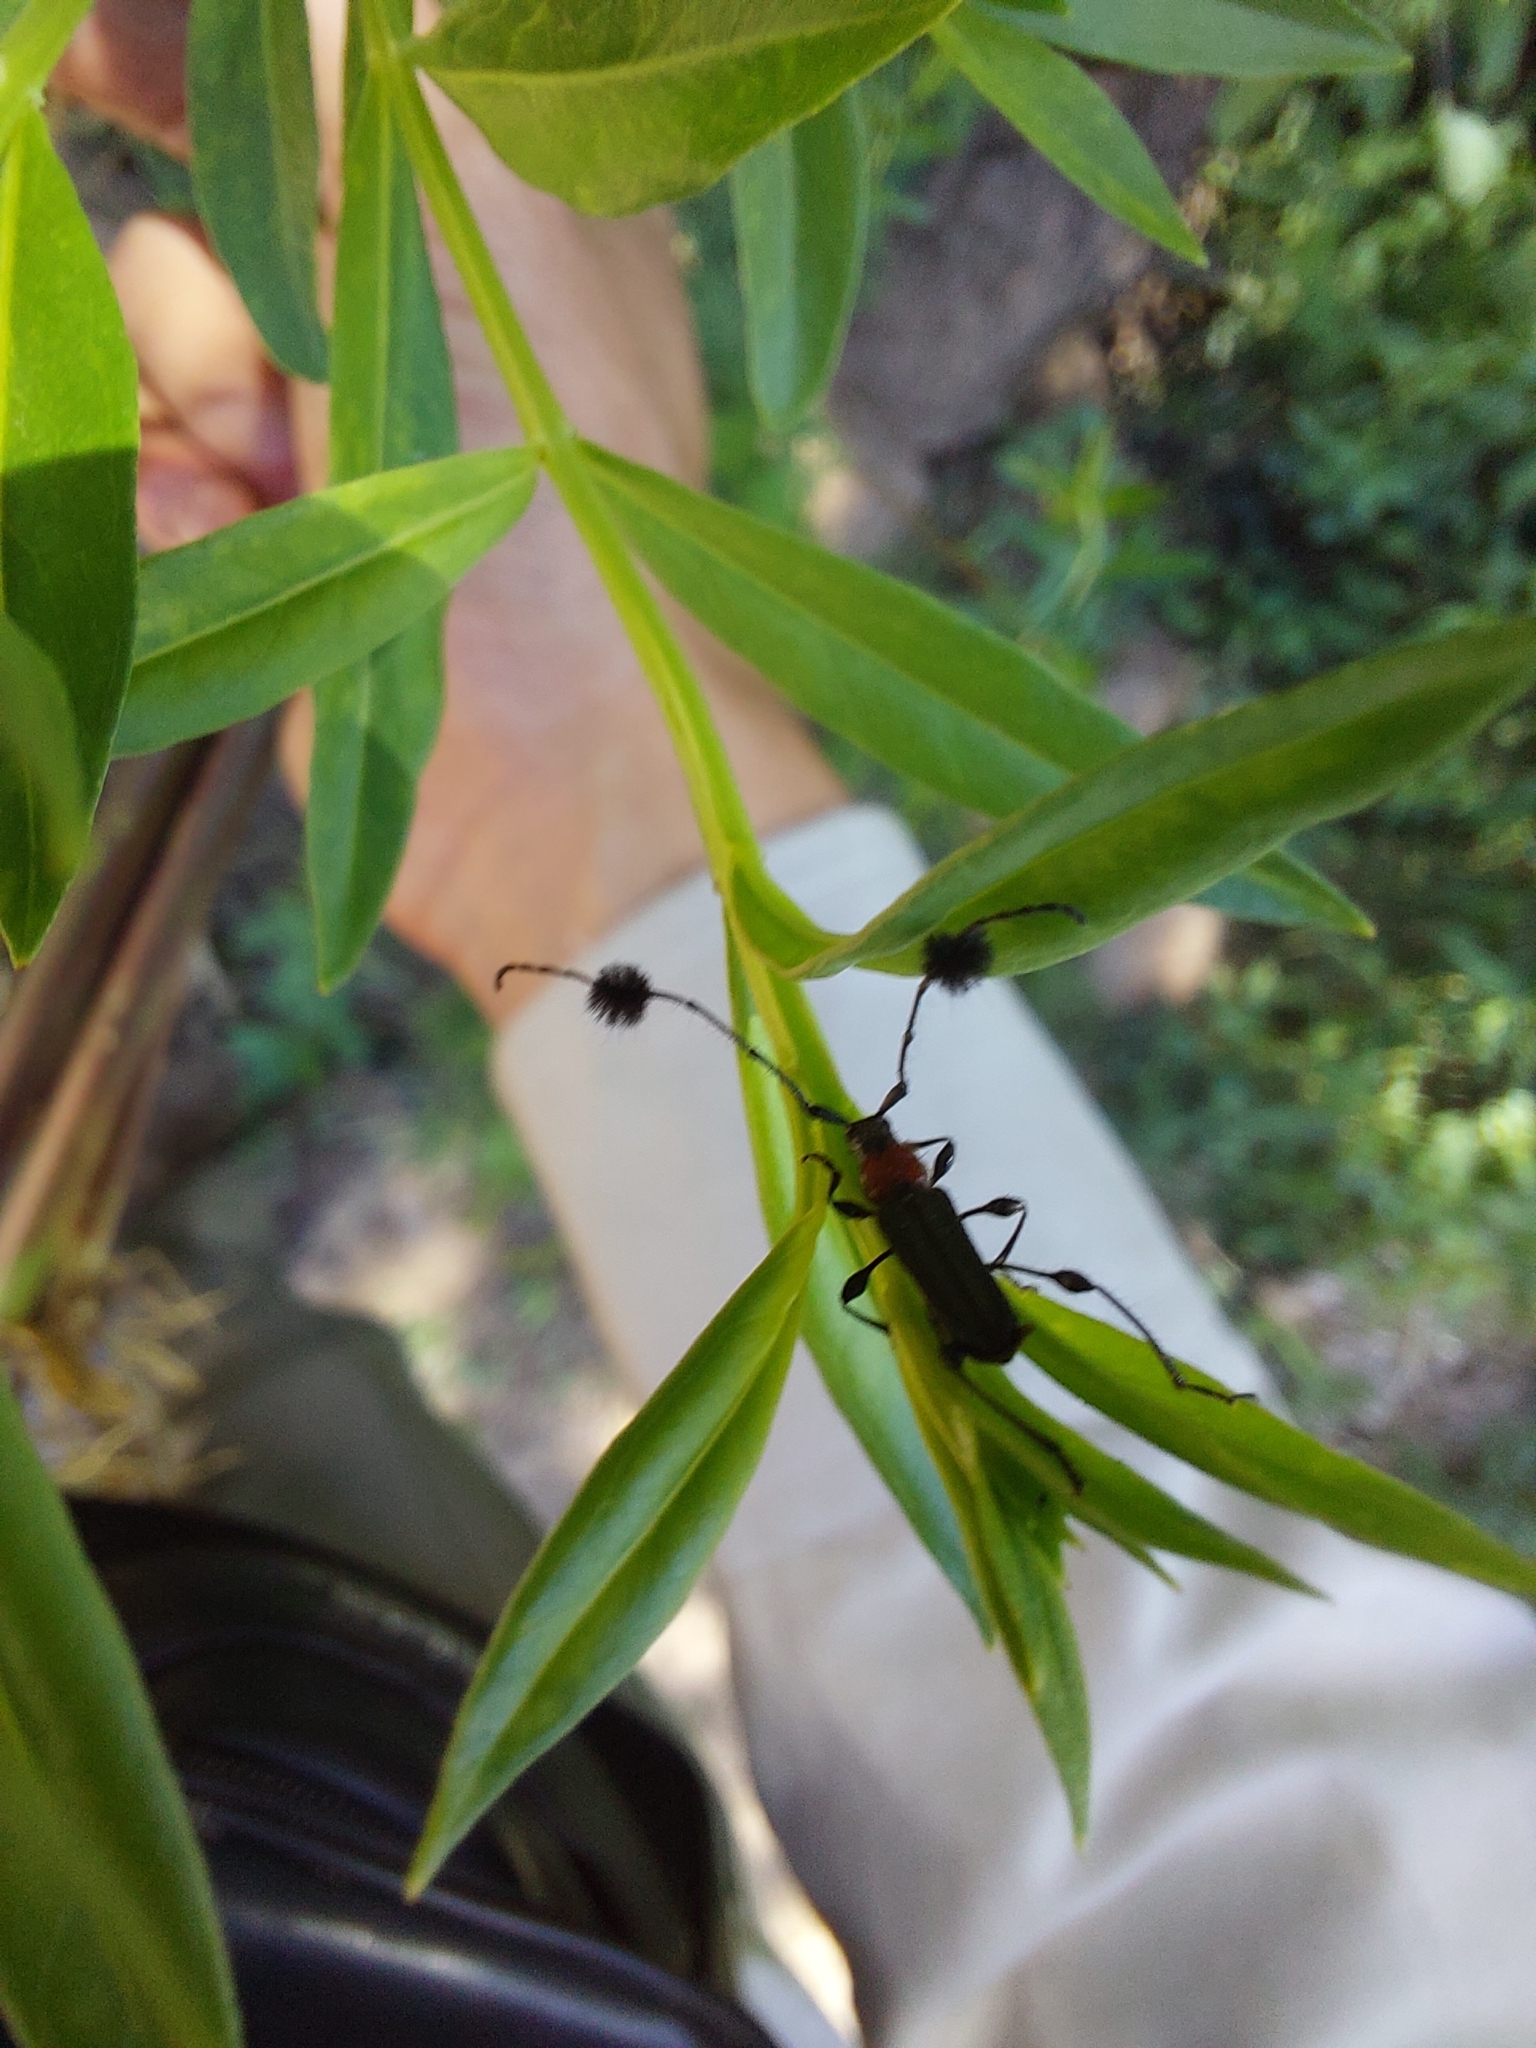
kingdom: Animalia
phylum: Arthropoda
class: Insecta
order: Coleoptera
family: Cerambycidae
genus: Cosmisoma
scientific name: Cosmisoma brullei
